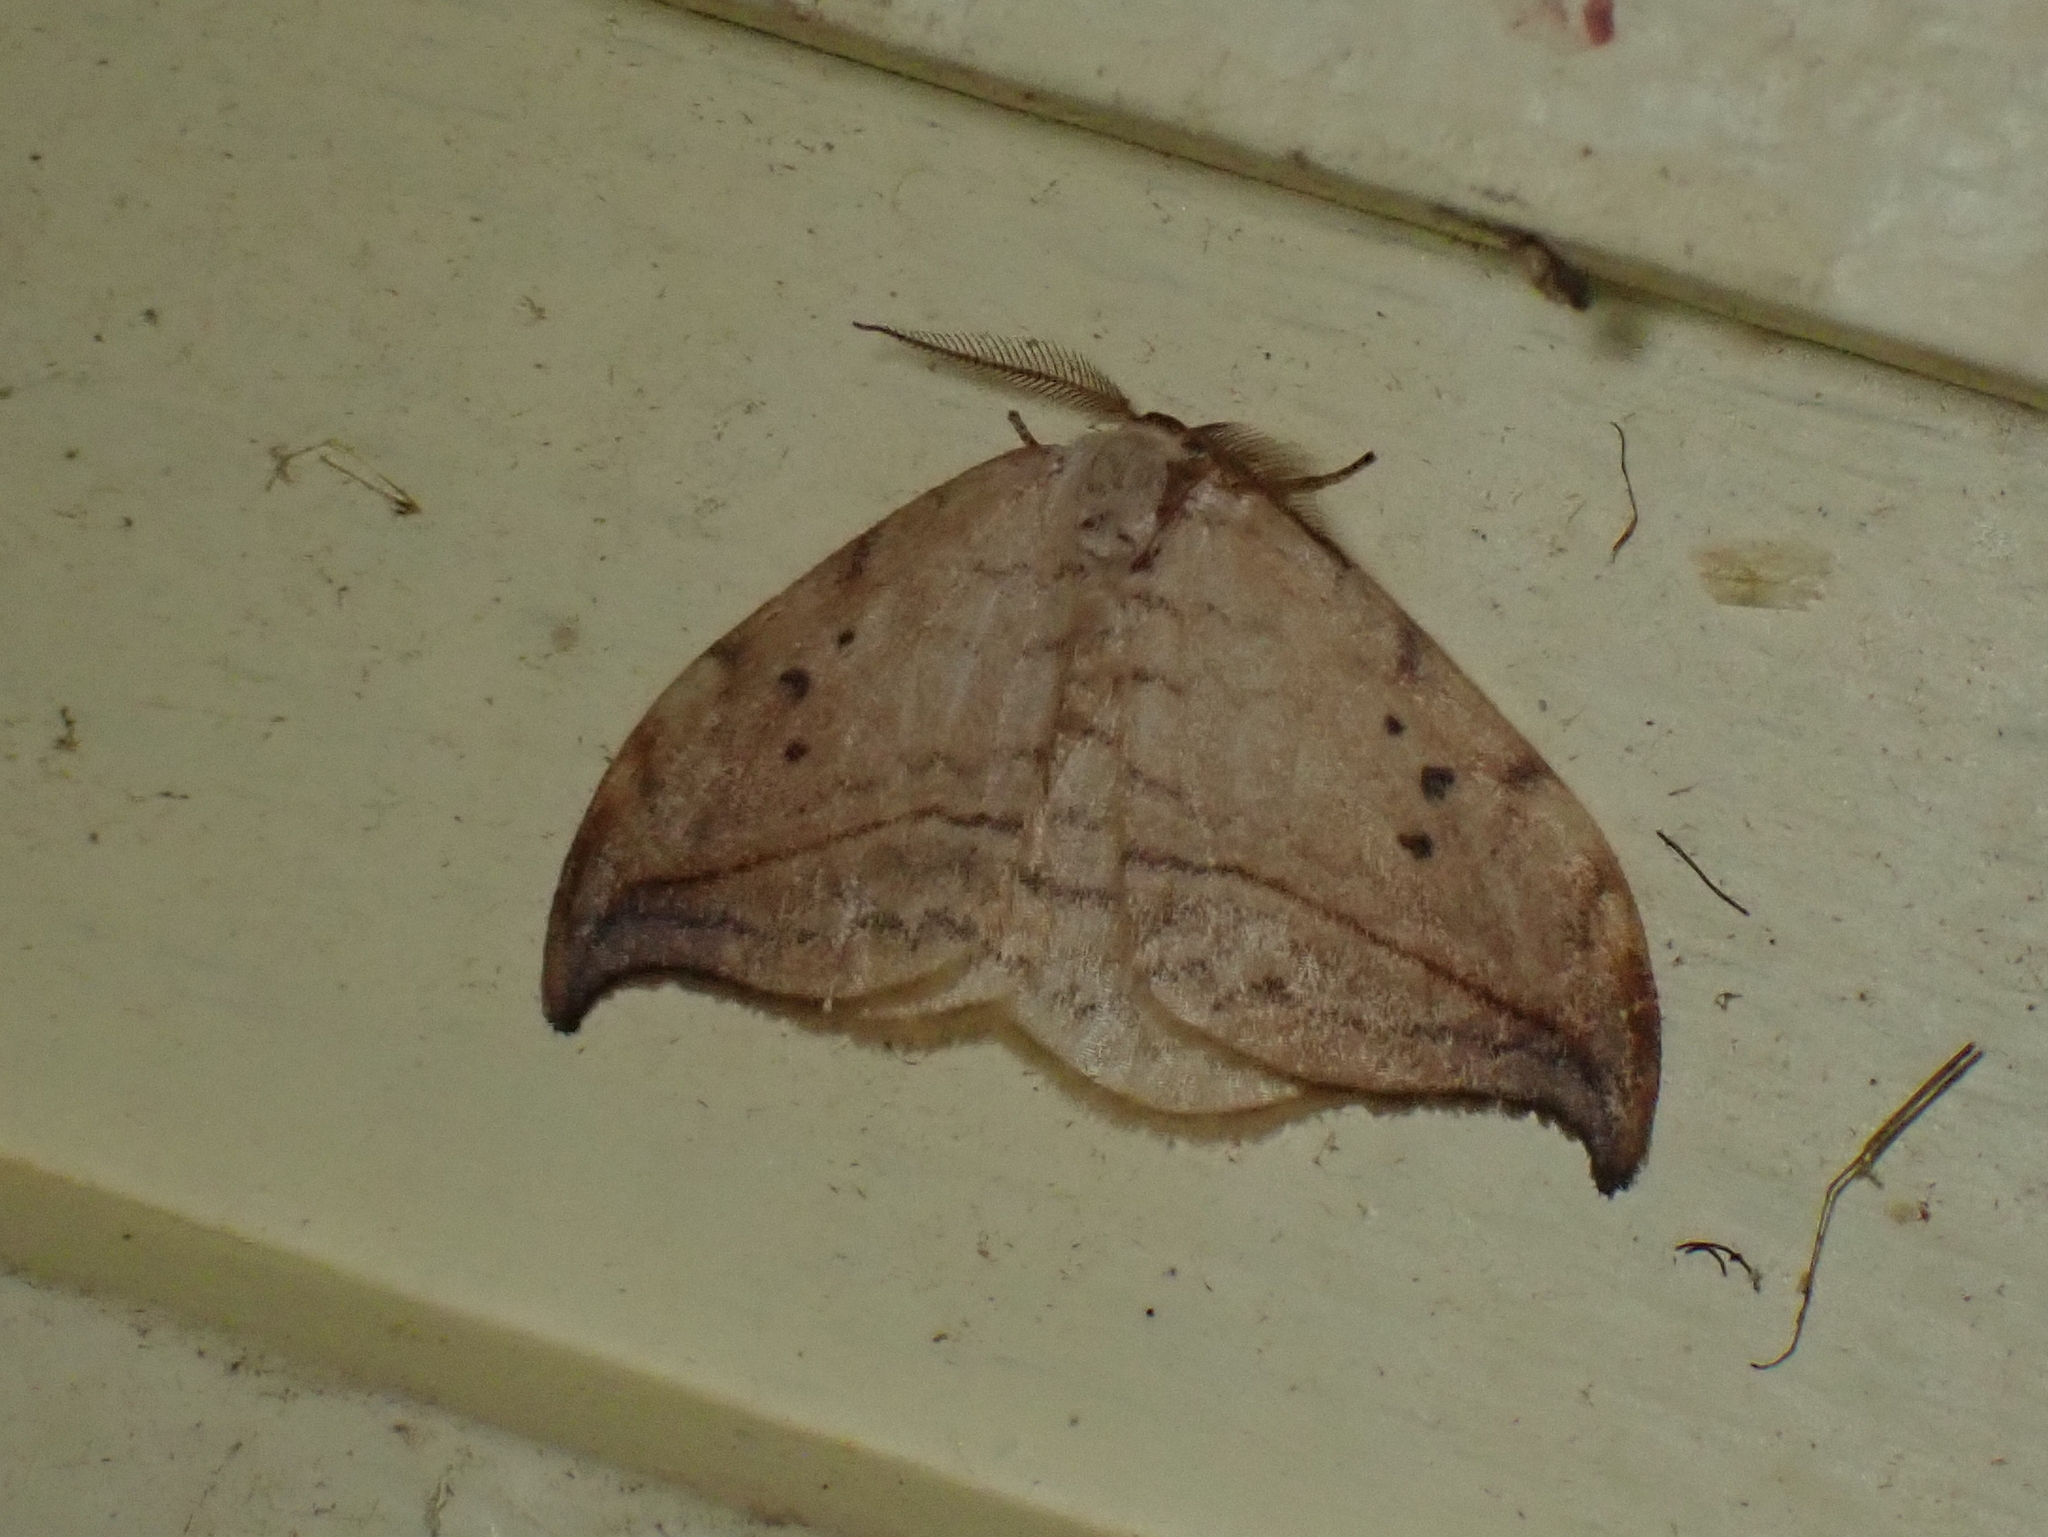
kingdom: Animalia
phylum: Arthropoda
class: Insecta
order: Lepidoptera
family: Drepanidae
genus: Drepana
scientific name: Drepana arcuata
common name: Arched hooktip moth
